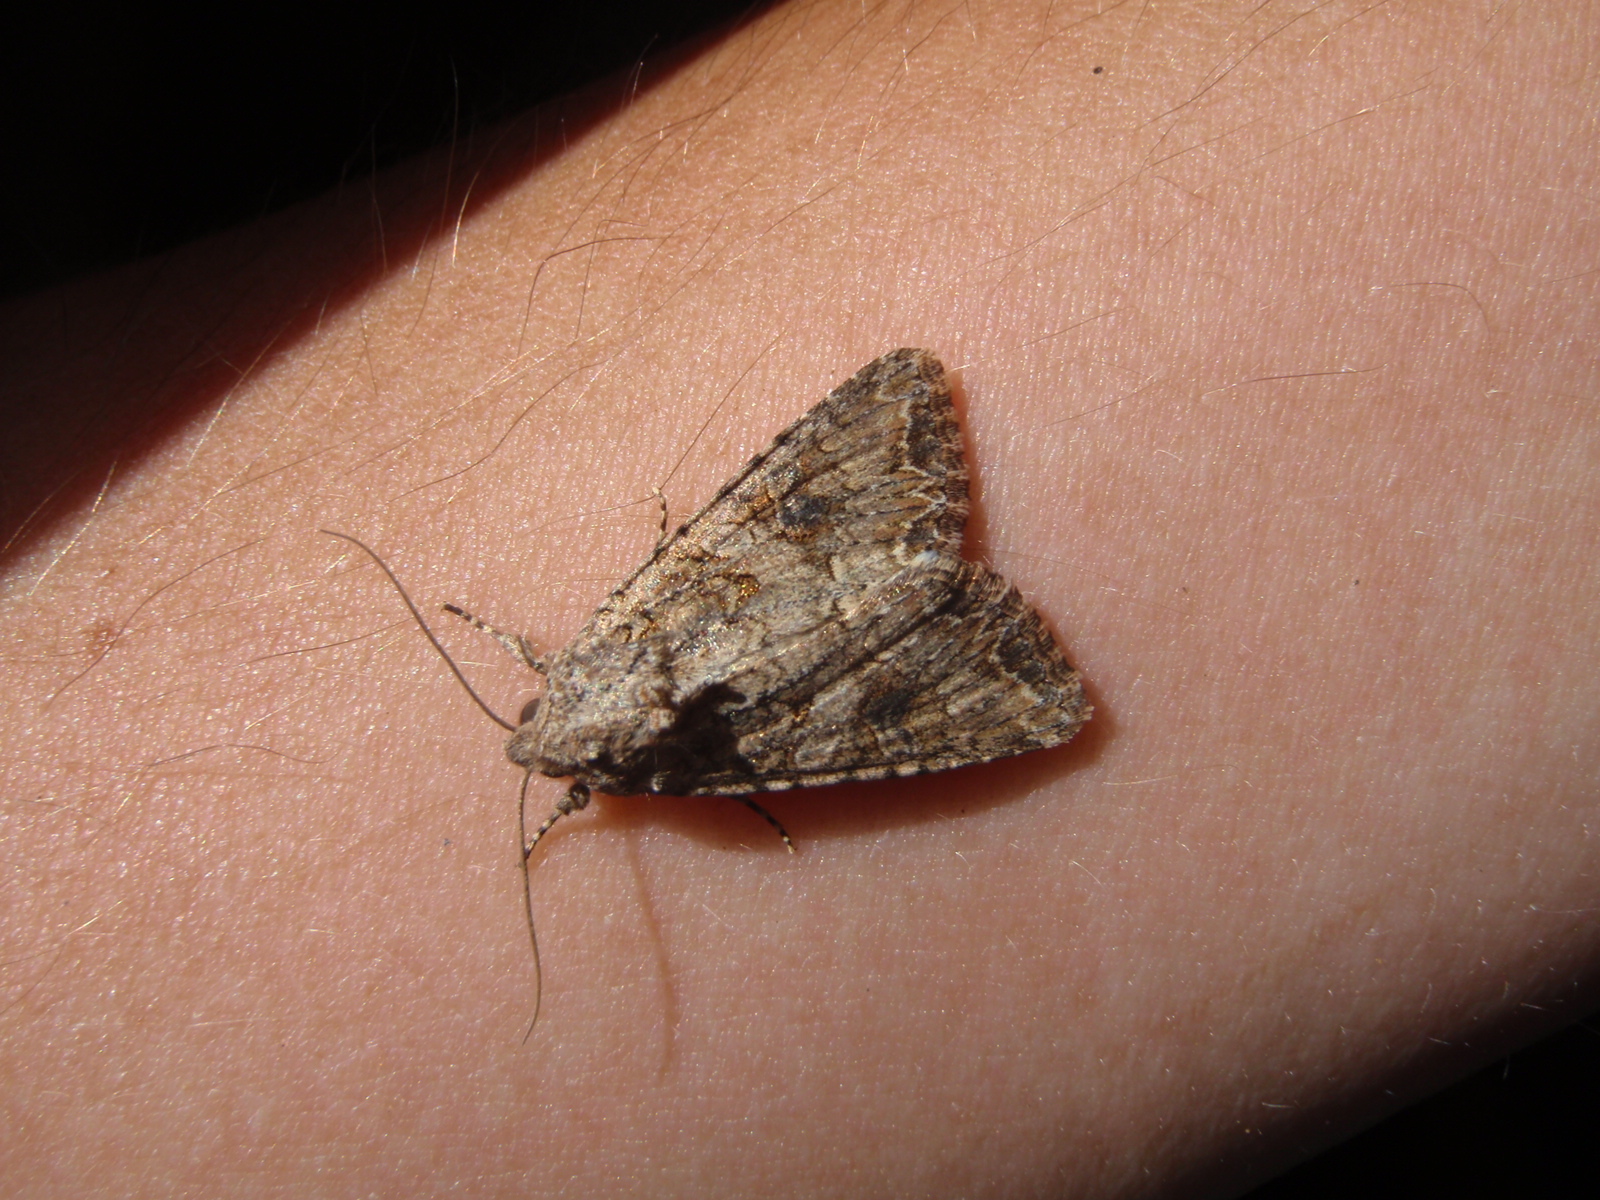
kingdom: Animalia
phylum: Arthropoda
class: Insecta
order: Lepidoptera
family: Noctuidae
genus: Anarta
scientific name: Anarta trifolii
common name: Clover cutworm moth
